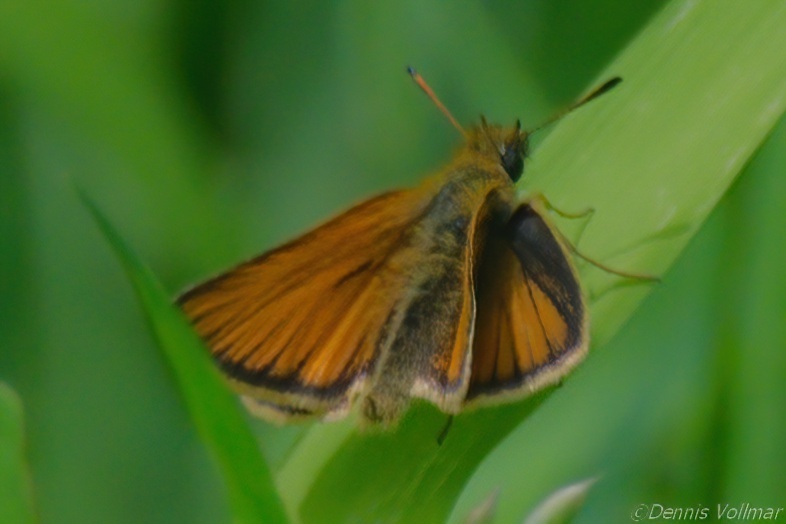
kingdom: Animalia
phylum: Arthropoda
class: Insecta
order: Lepidoptera
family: Hesperiidae
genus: Thymelicus
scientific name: Thymelicus lineola
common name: Essex skipper
